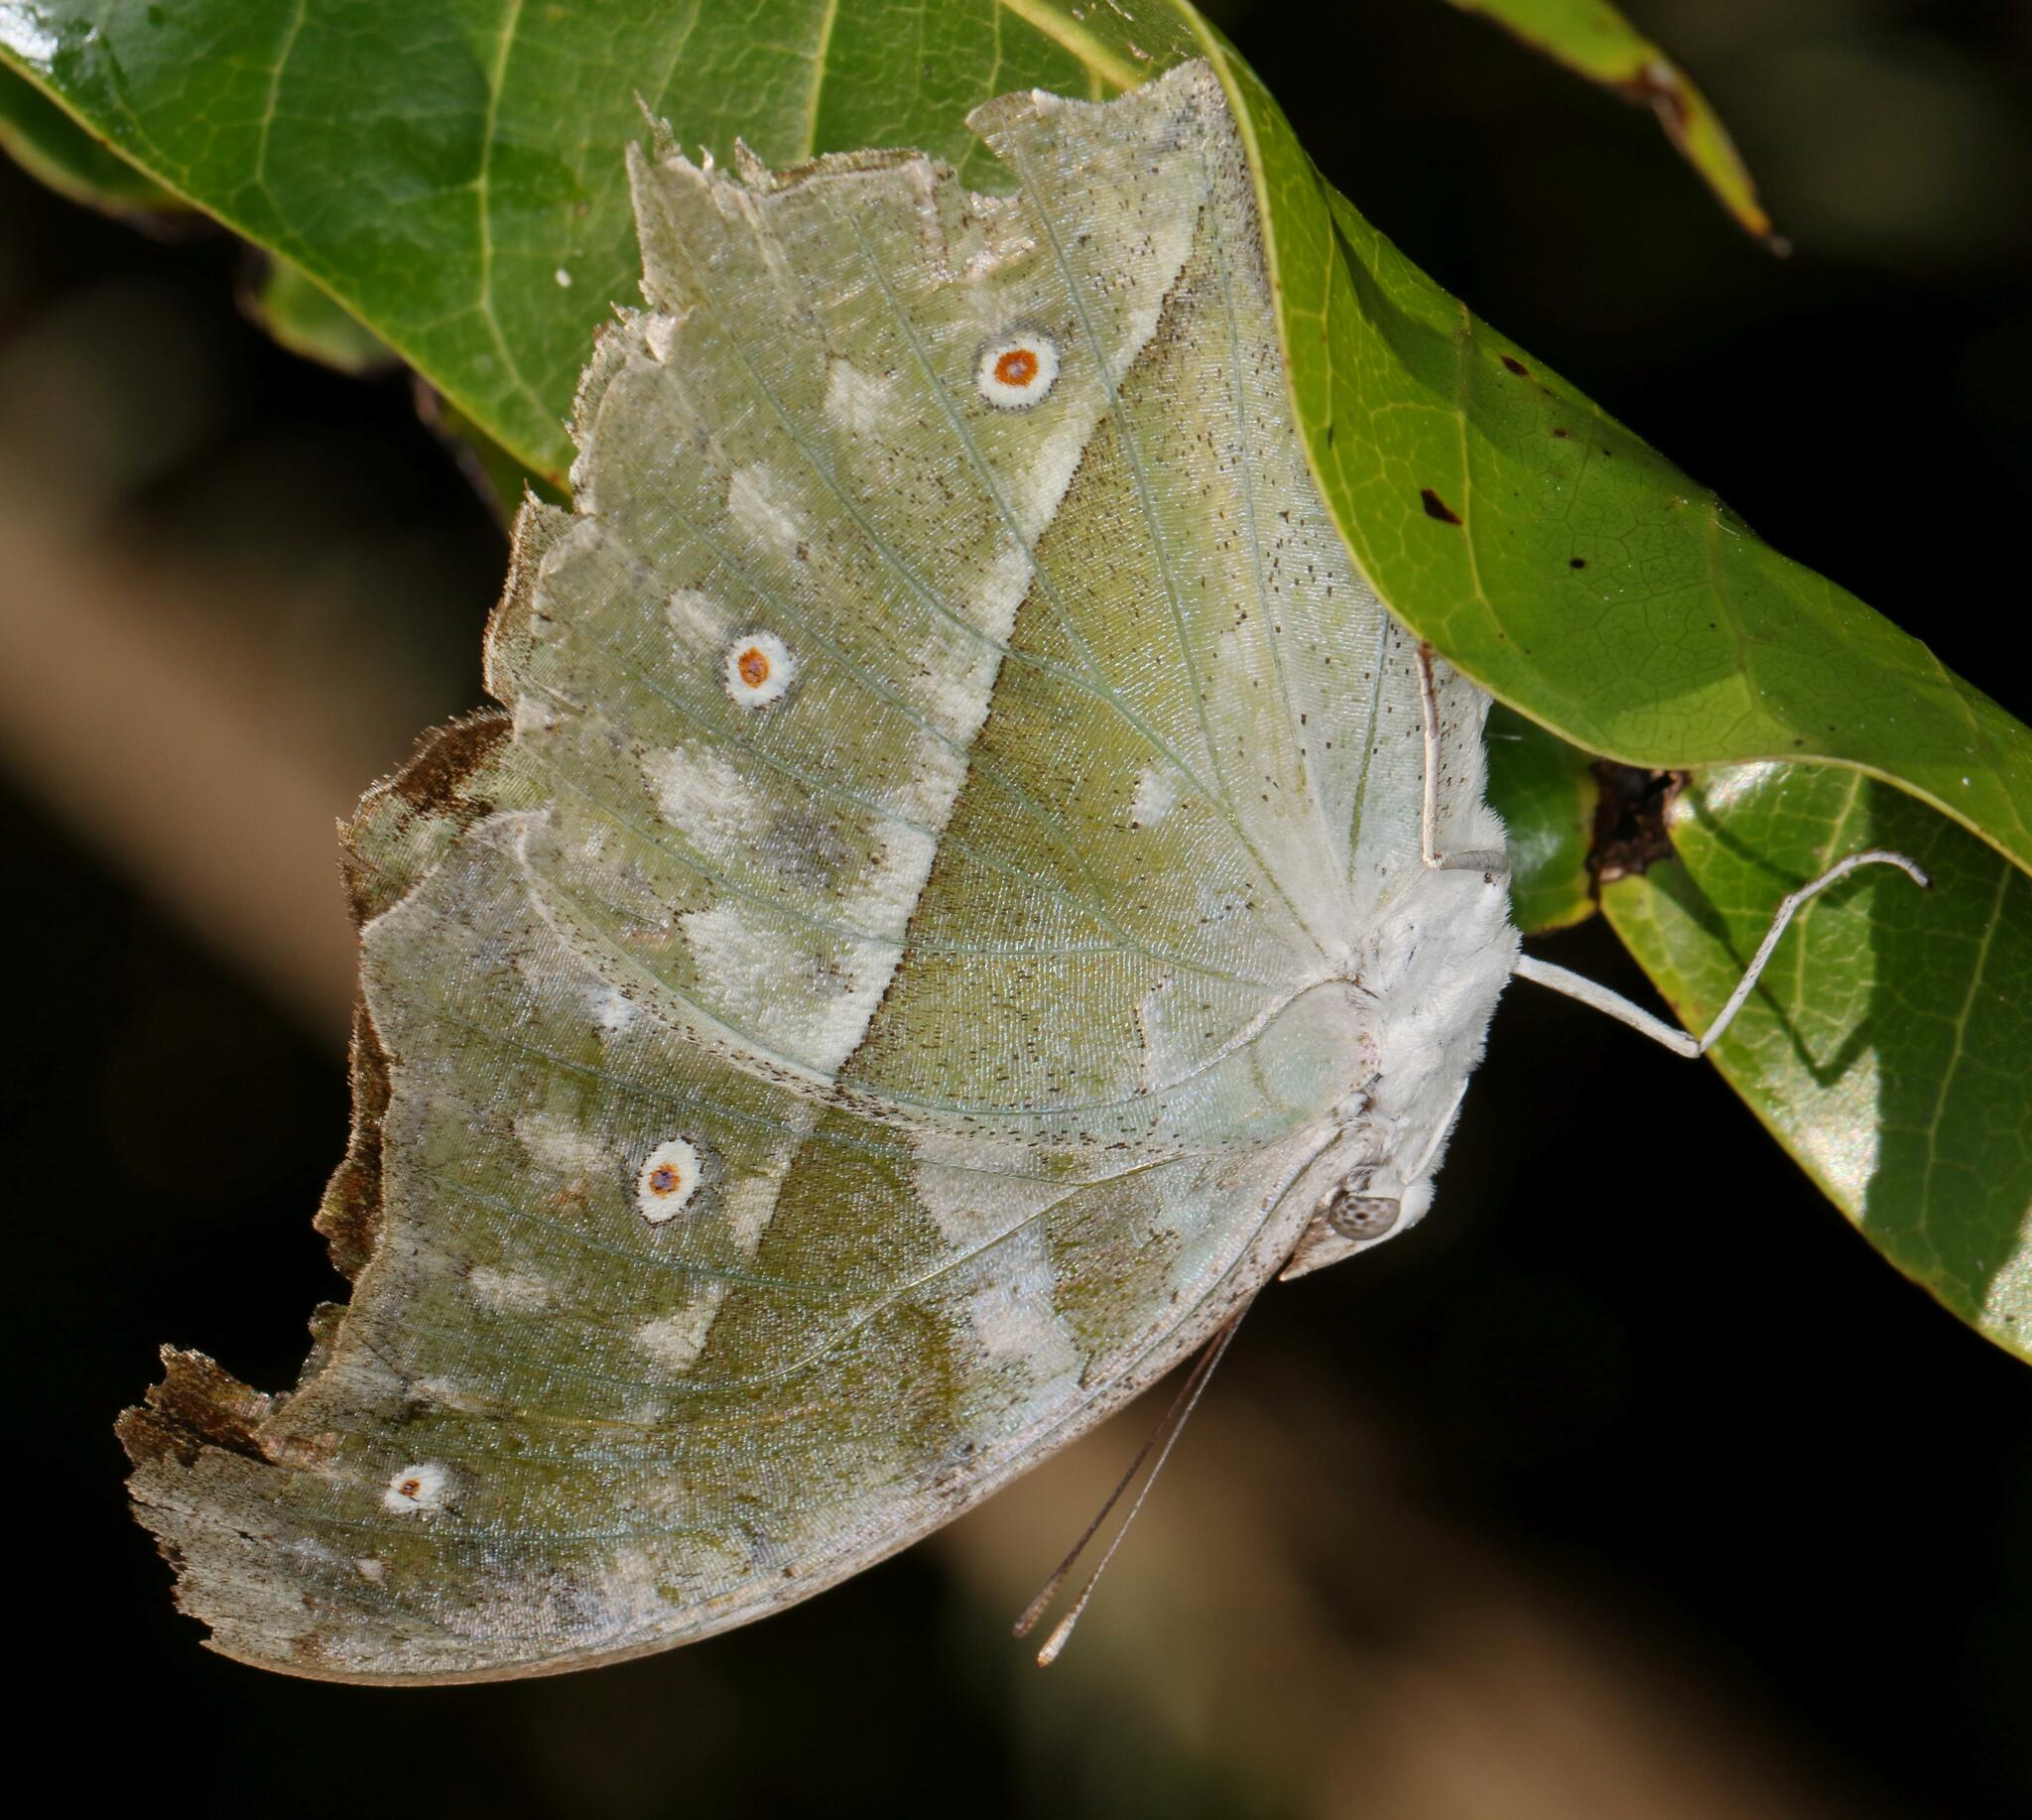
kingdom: Animalia
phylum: Arthropoda
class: Insecta
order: Lepidoptera
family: Nymphalidae
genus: Salamis
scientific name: Salamis Protogoniomorpha parhassus
